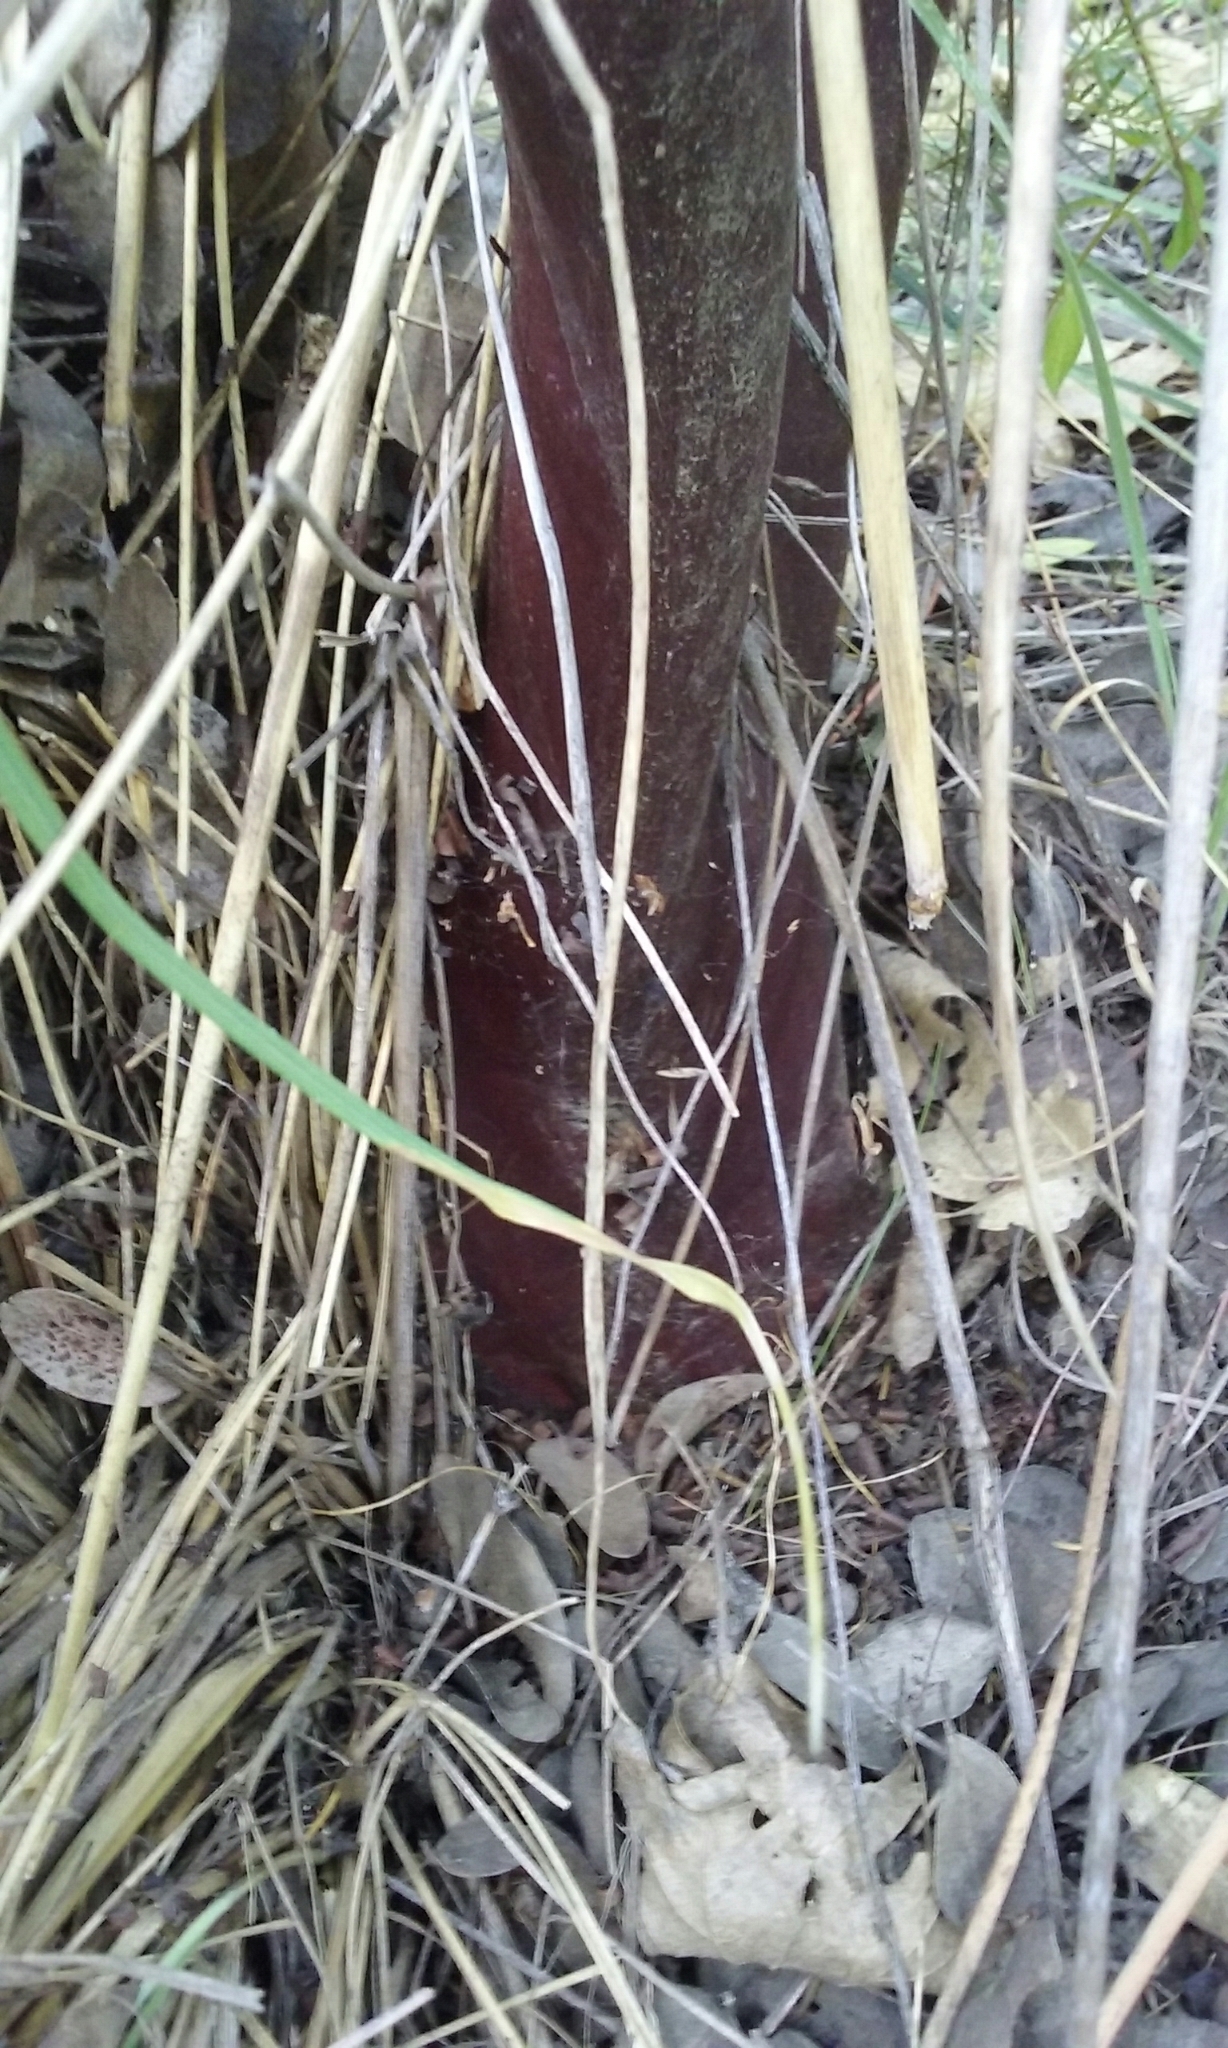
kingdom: Plantae
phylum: Tracheophyta
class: Magnoliopsida
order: Ericales
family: Ericaceae
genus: Arctostaphylos
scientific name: Arctostaphylos canescens
